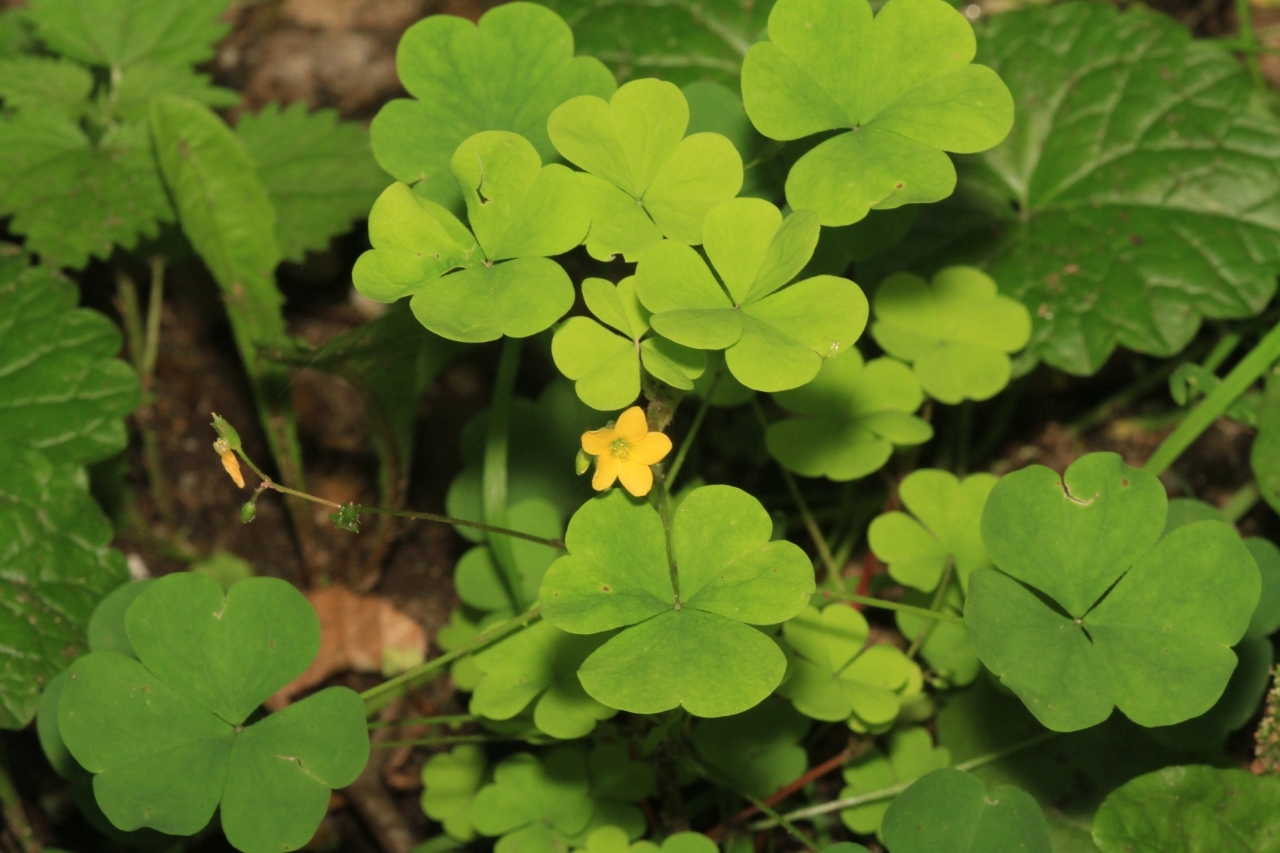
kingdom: Plantae
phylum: Tracheophyta
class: Magnoliopsida
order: Oxalidales
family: Oxalidaceae
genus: Oxalis
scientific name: Oxalis stricta
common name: Upright yellow-sorrel
